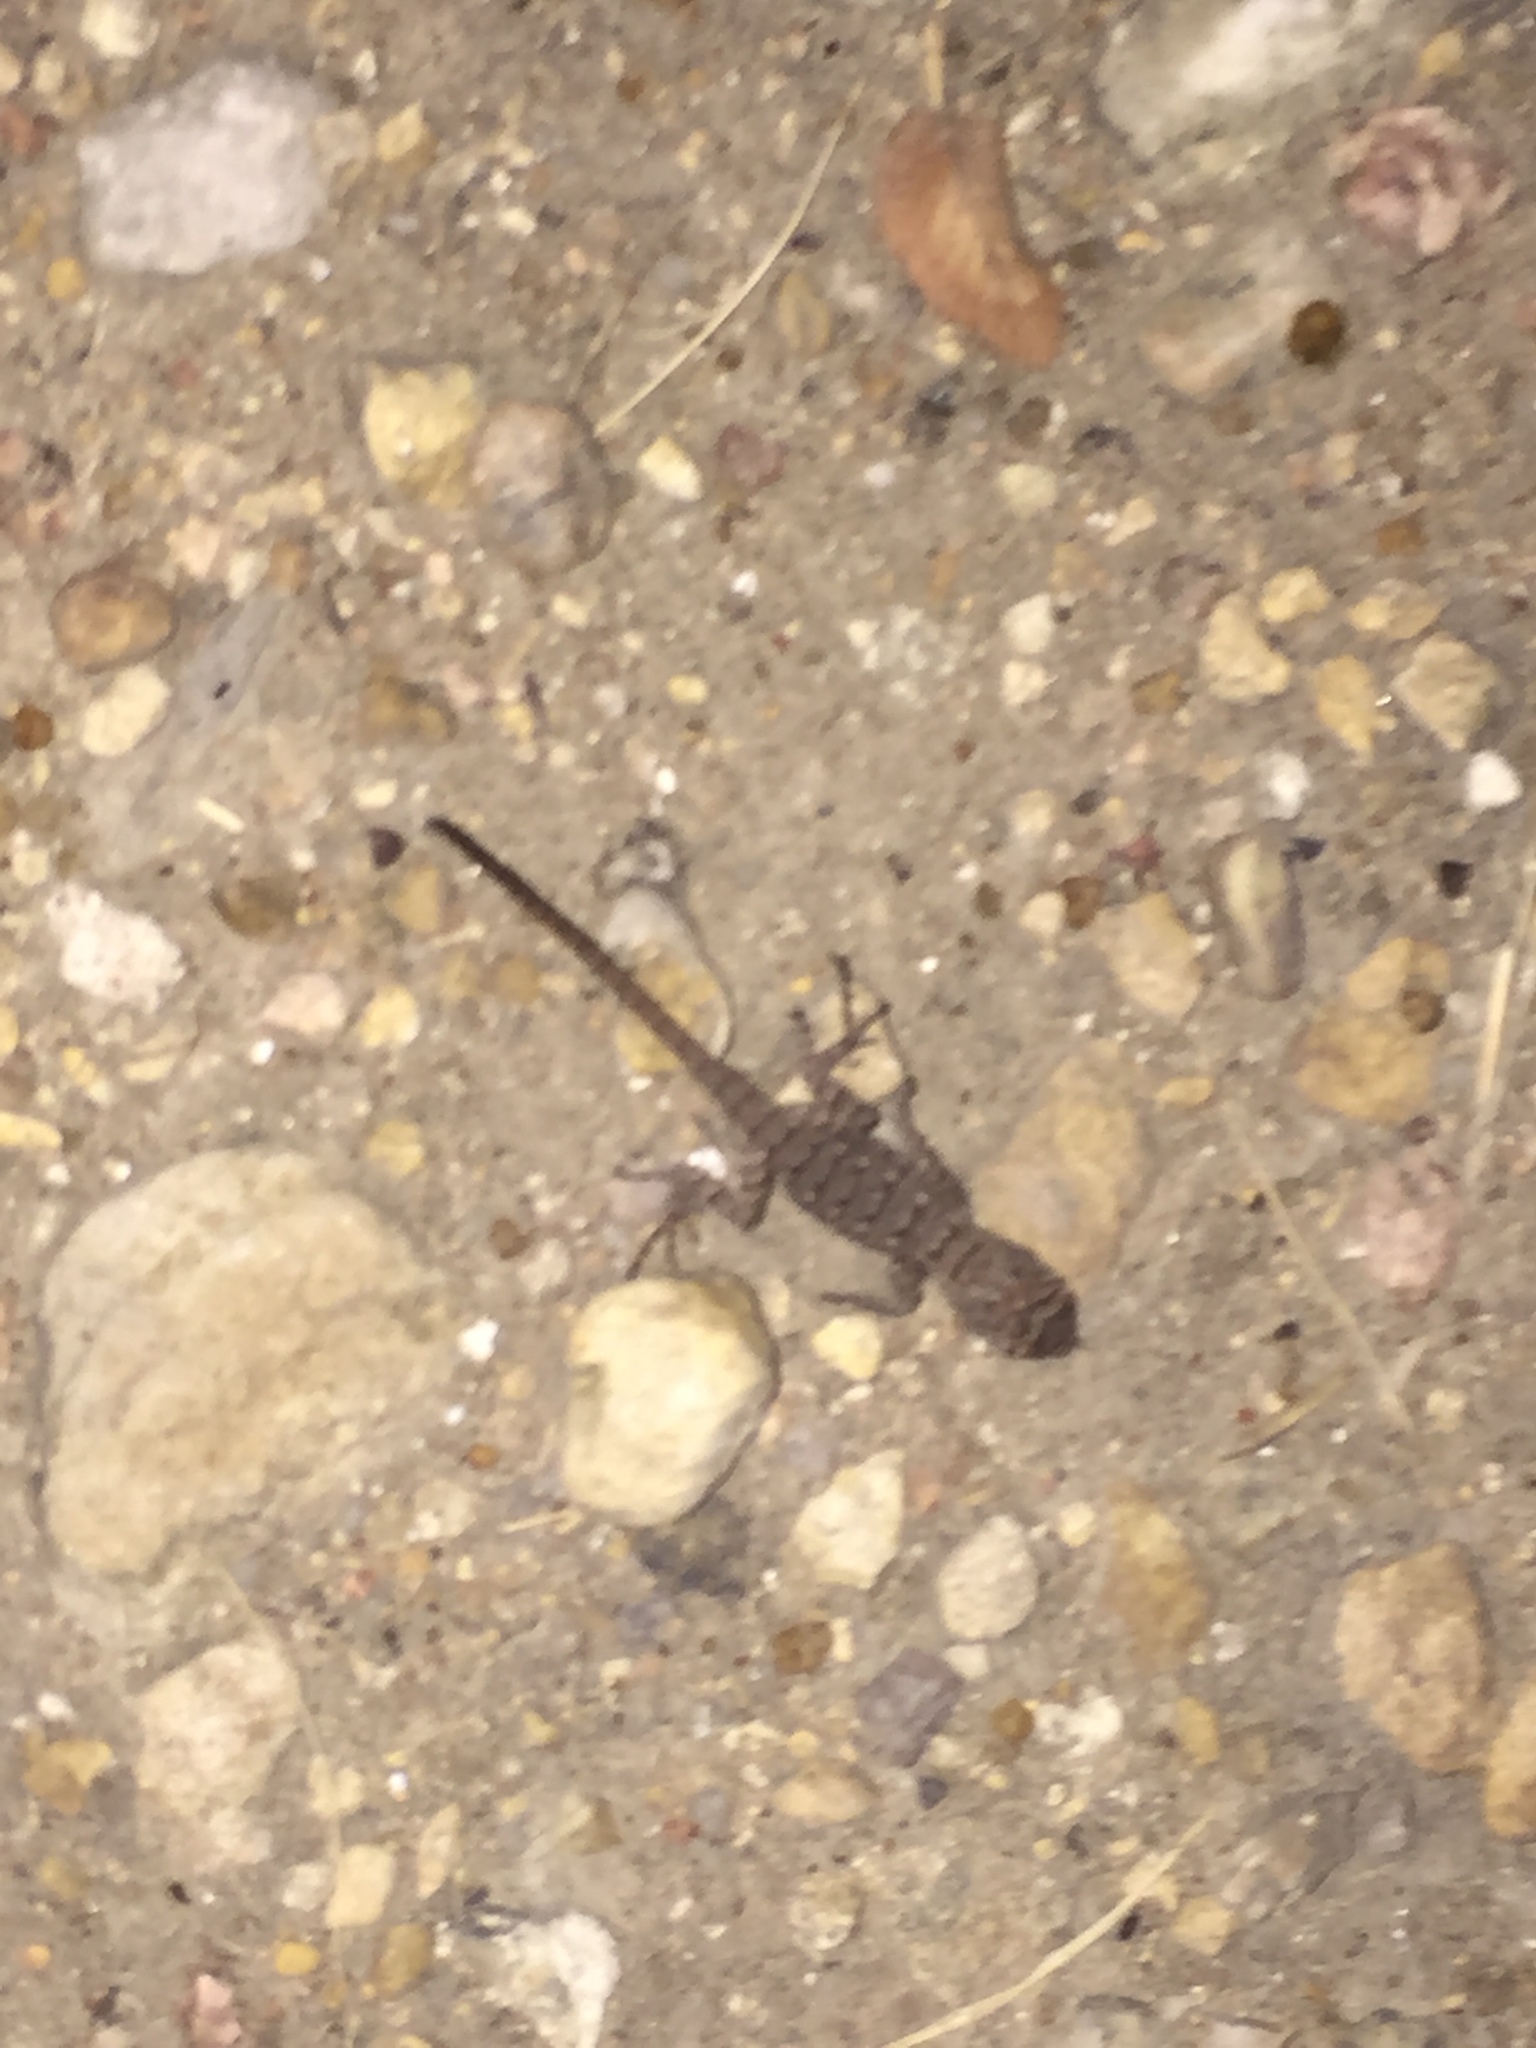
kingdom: Animalia
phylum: Chordata
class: Squamata
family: Phrynosomatidae
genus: Sceloporus
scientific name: Sceloporus olivaceus
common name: Texas spiny lizard
